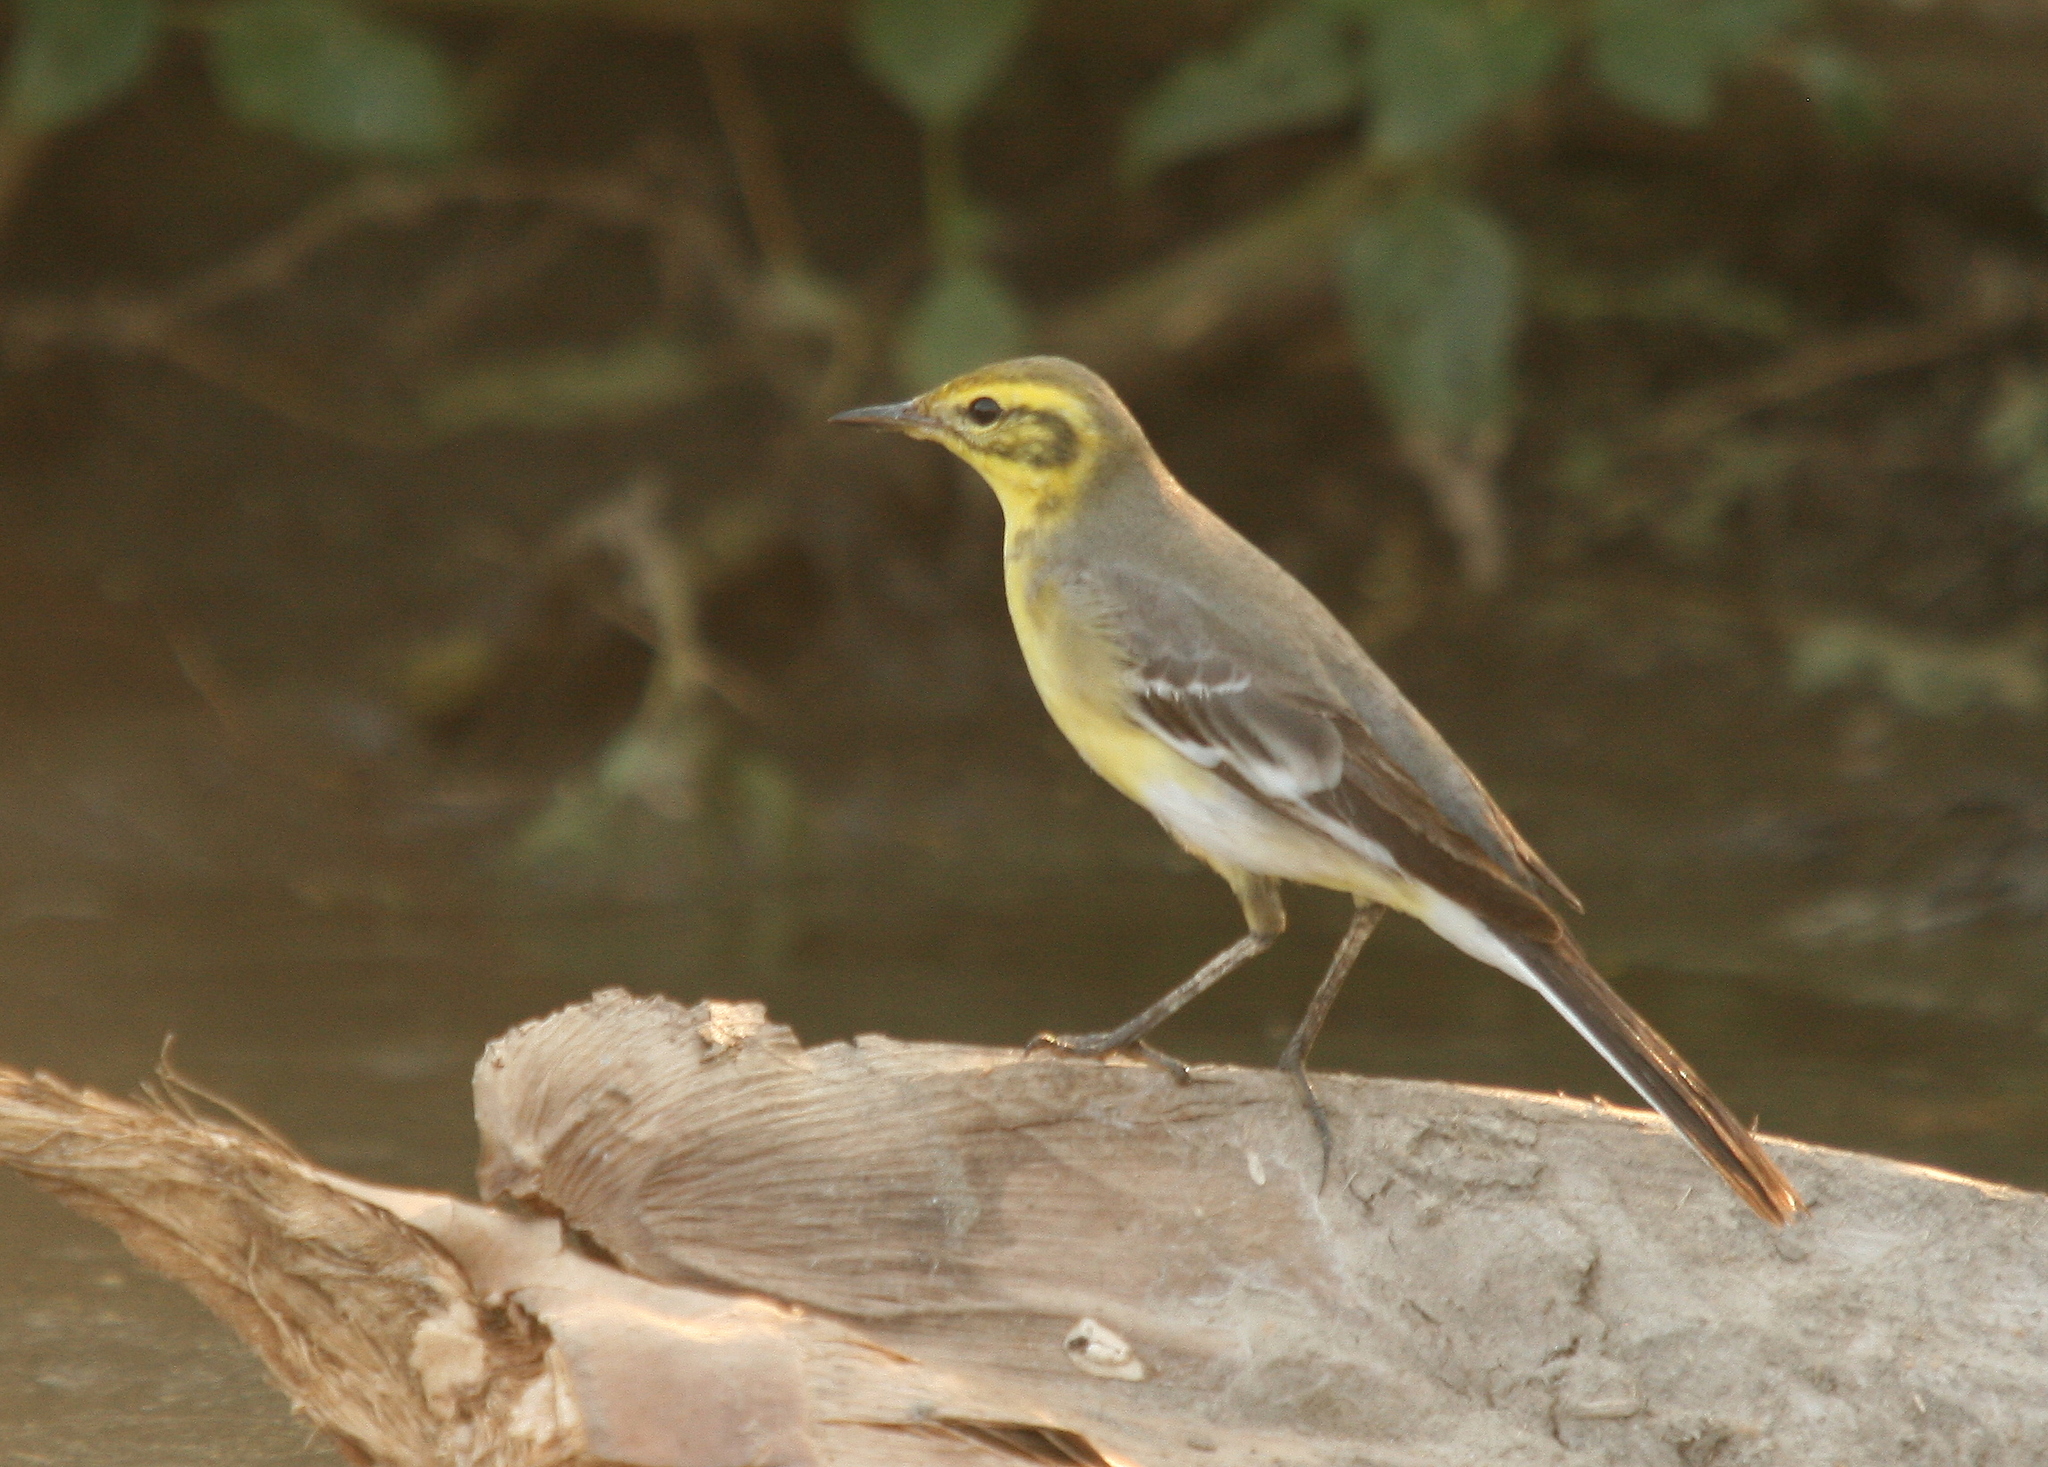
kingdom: Animalia
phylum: Chordata
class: Aves
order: Passeriformes
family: Motacillidae
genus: Motacilla
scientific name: Motacilla citreola
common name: Citrine wagtail
